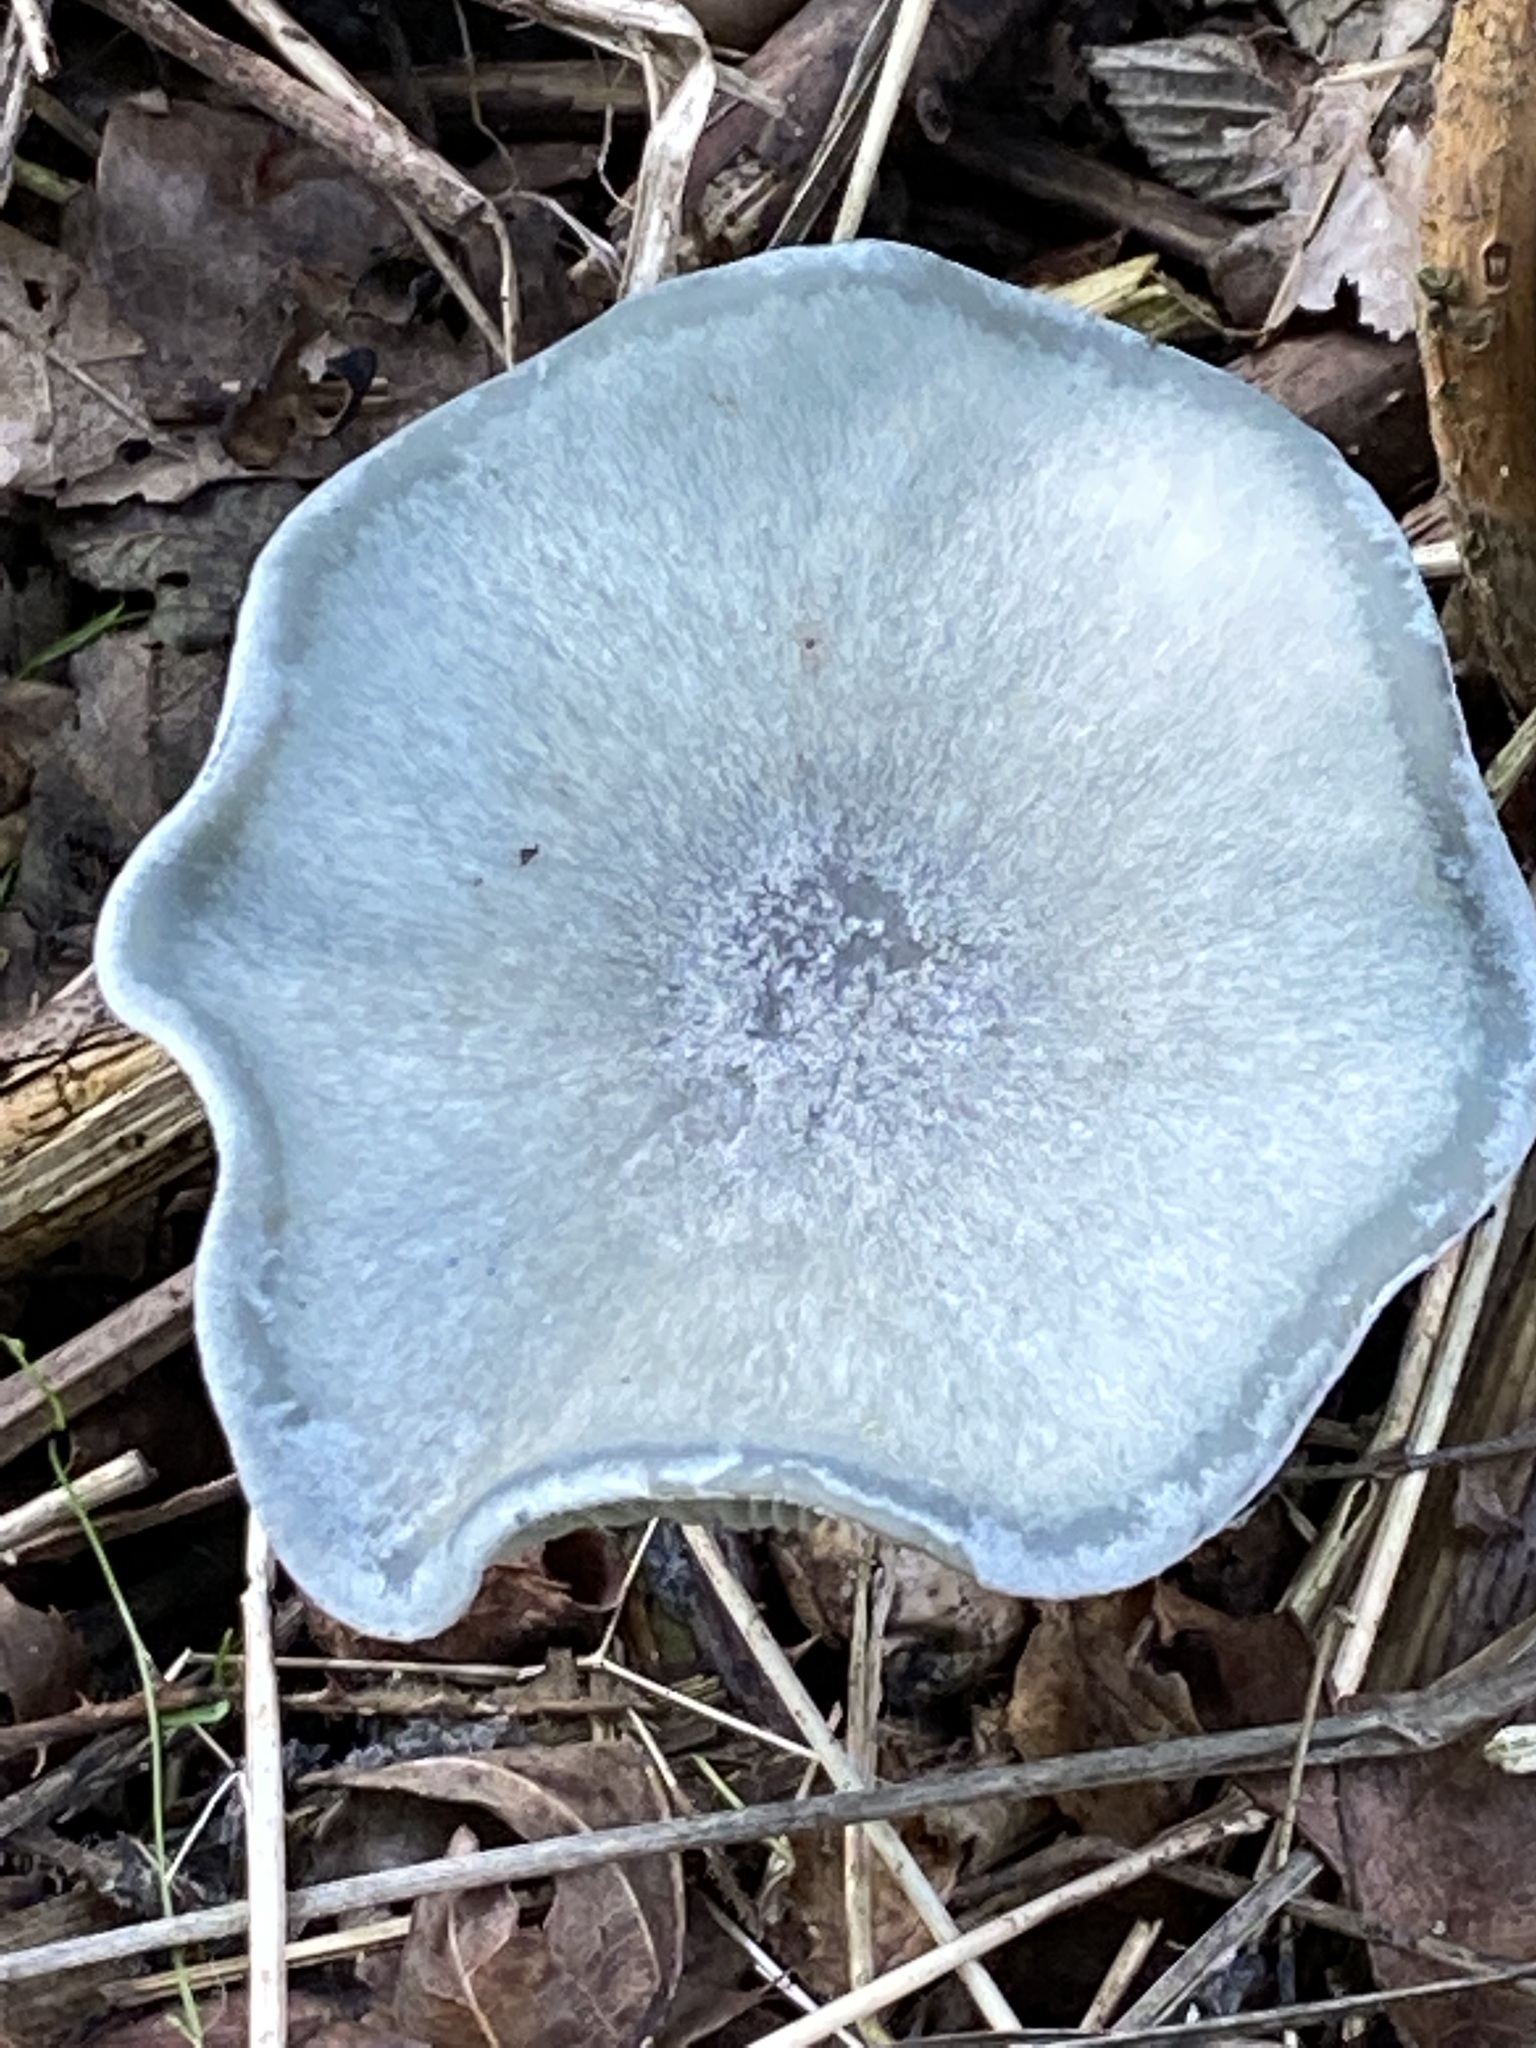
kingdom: Fungi
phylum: Basidiomycota
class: Agaricomycetes
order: Agaricales
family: Tricholomataceae
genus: Collybia
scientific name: Collybia
